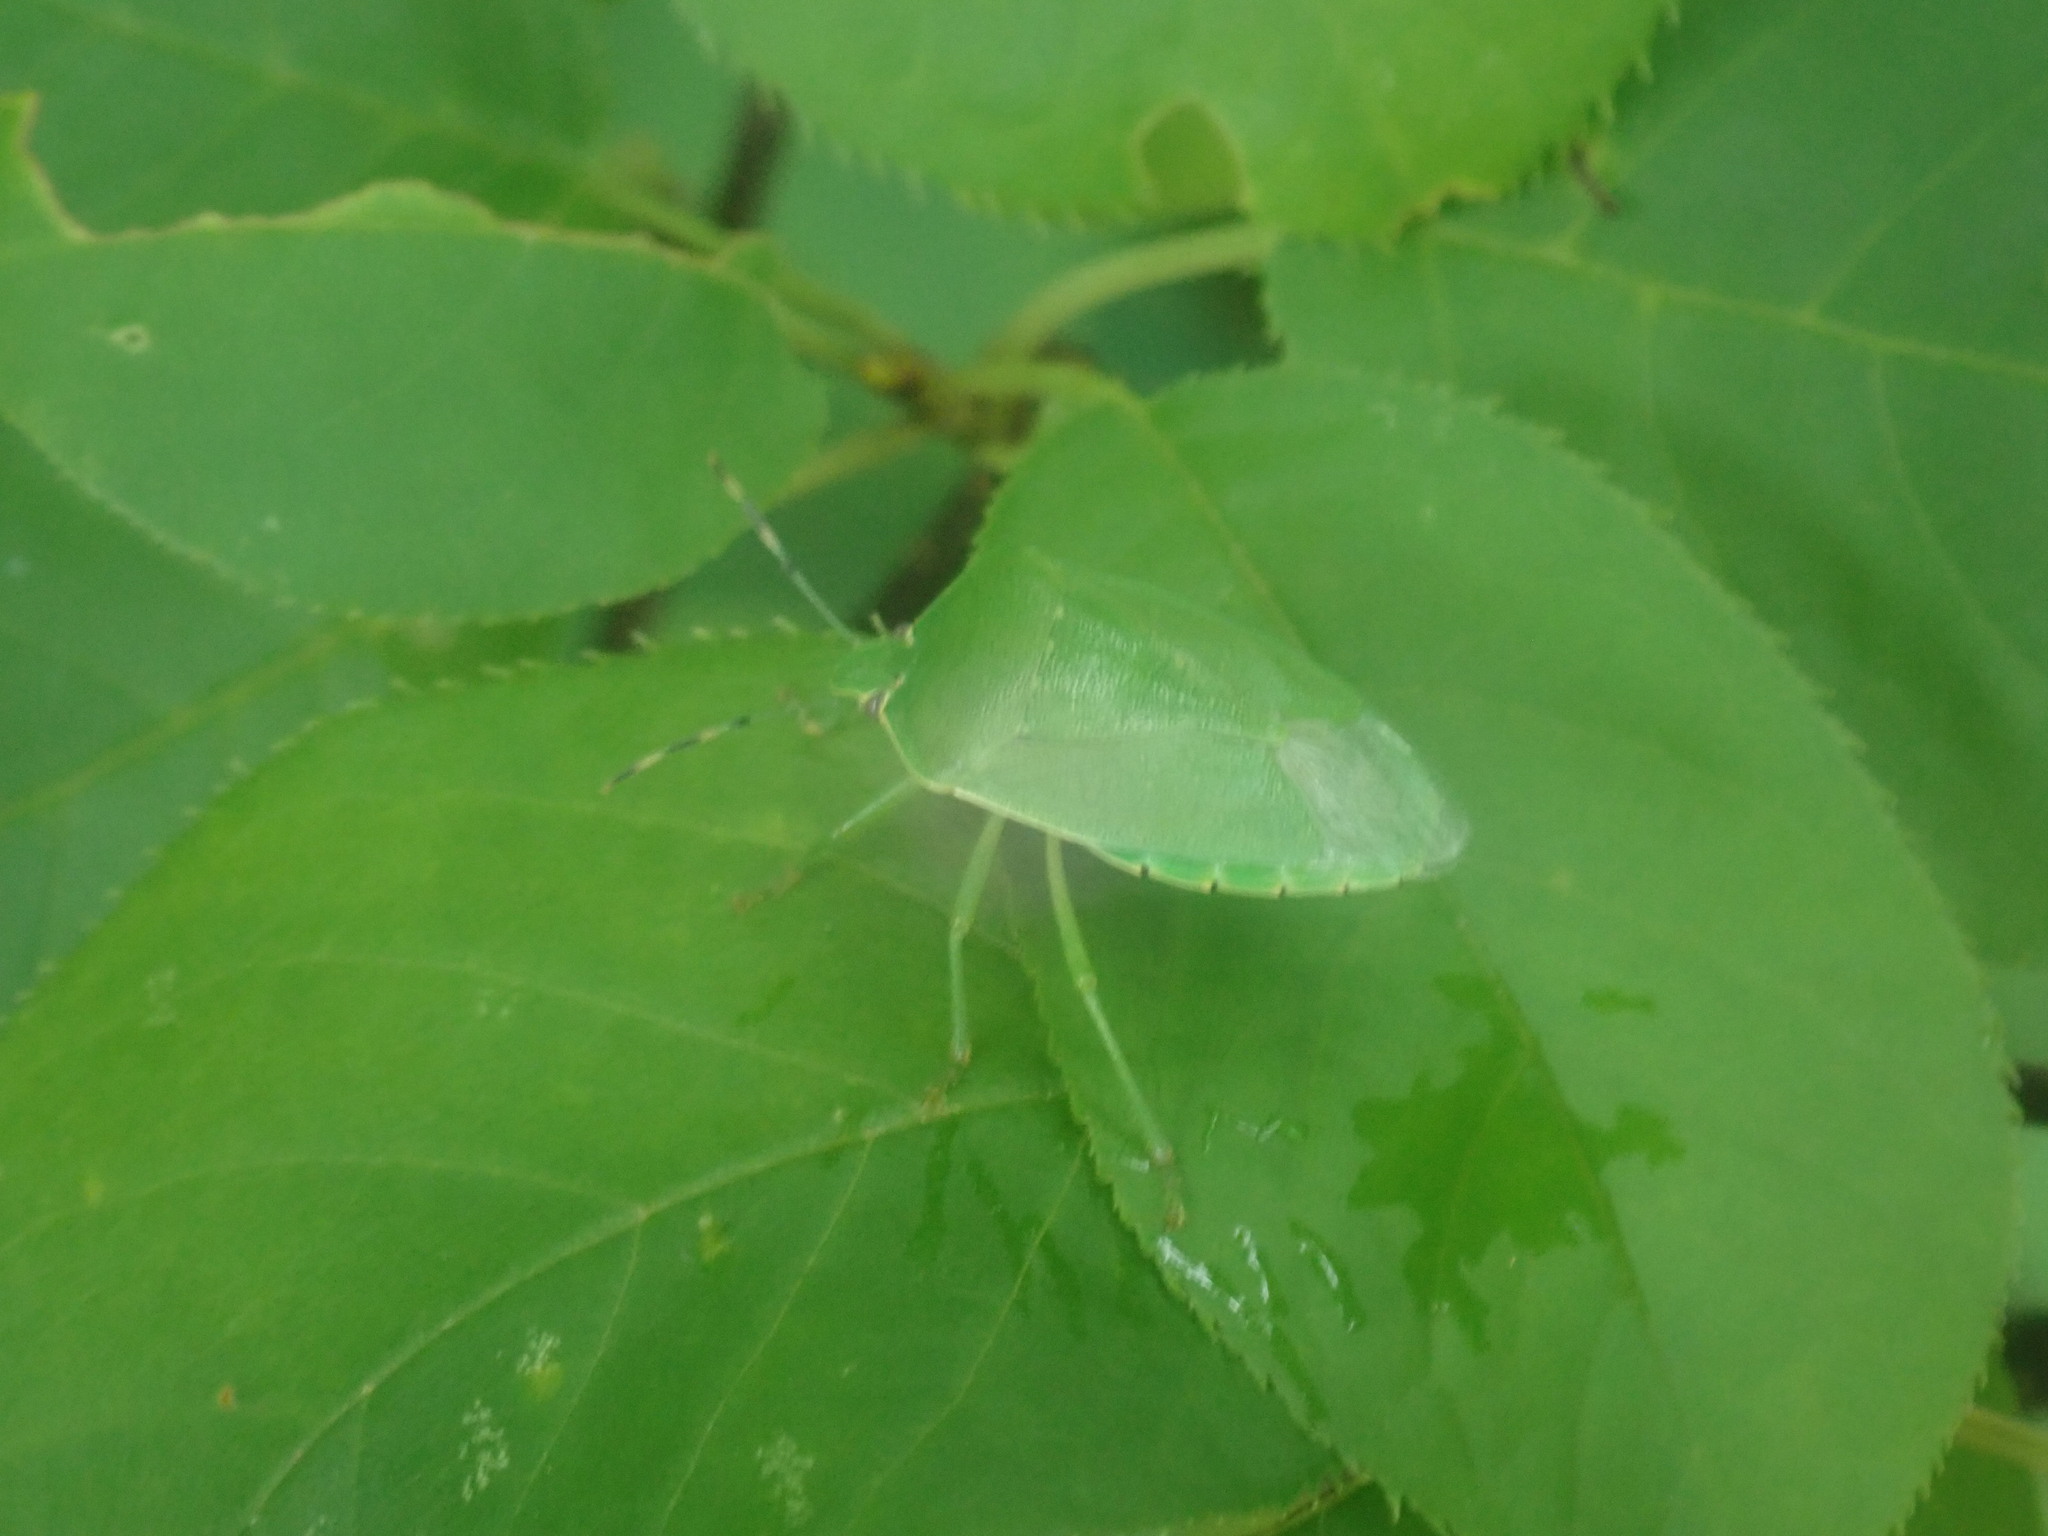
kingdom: Animalia
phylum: Arthropoda
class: Insecta
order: Hemiptera
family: Pentatomidae
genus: Chinavia
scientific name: Chinavia hilaris
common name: Green stink bug
